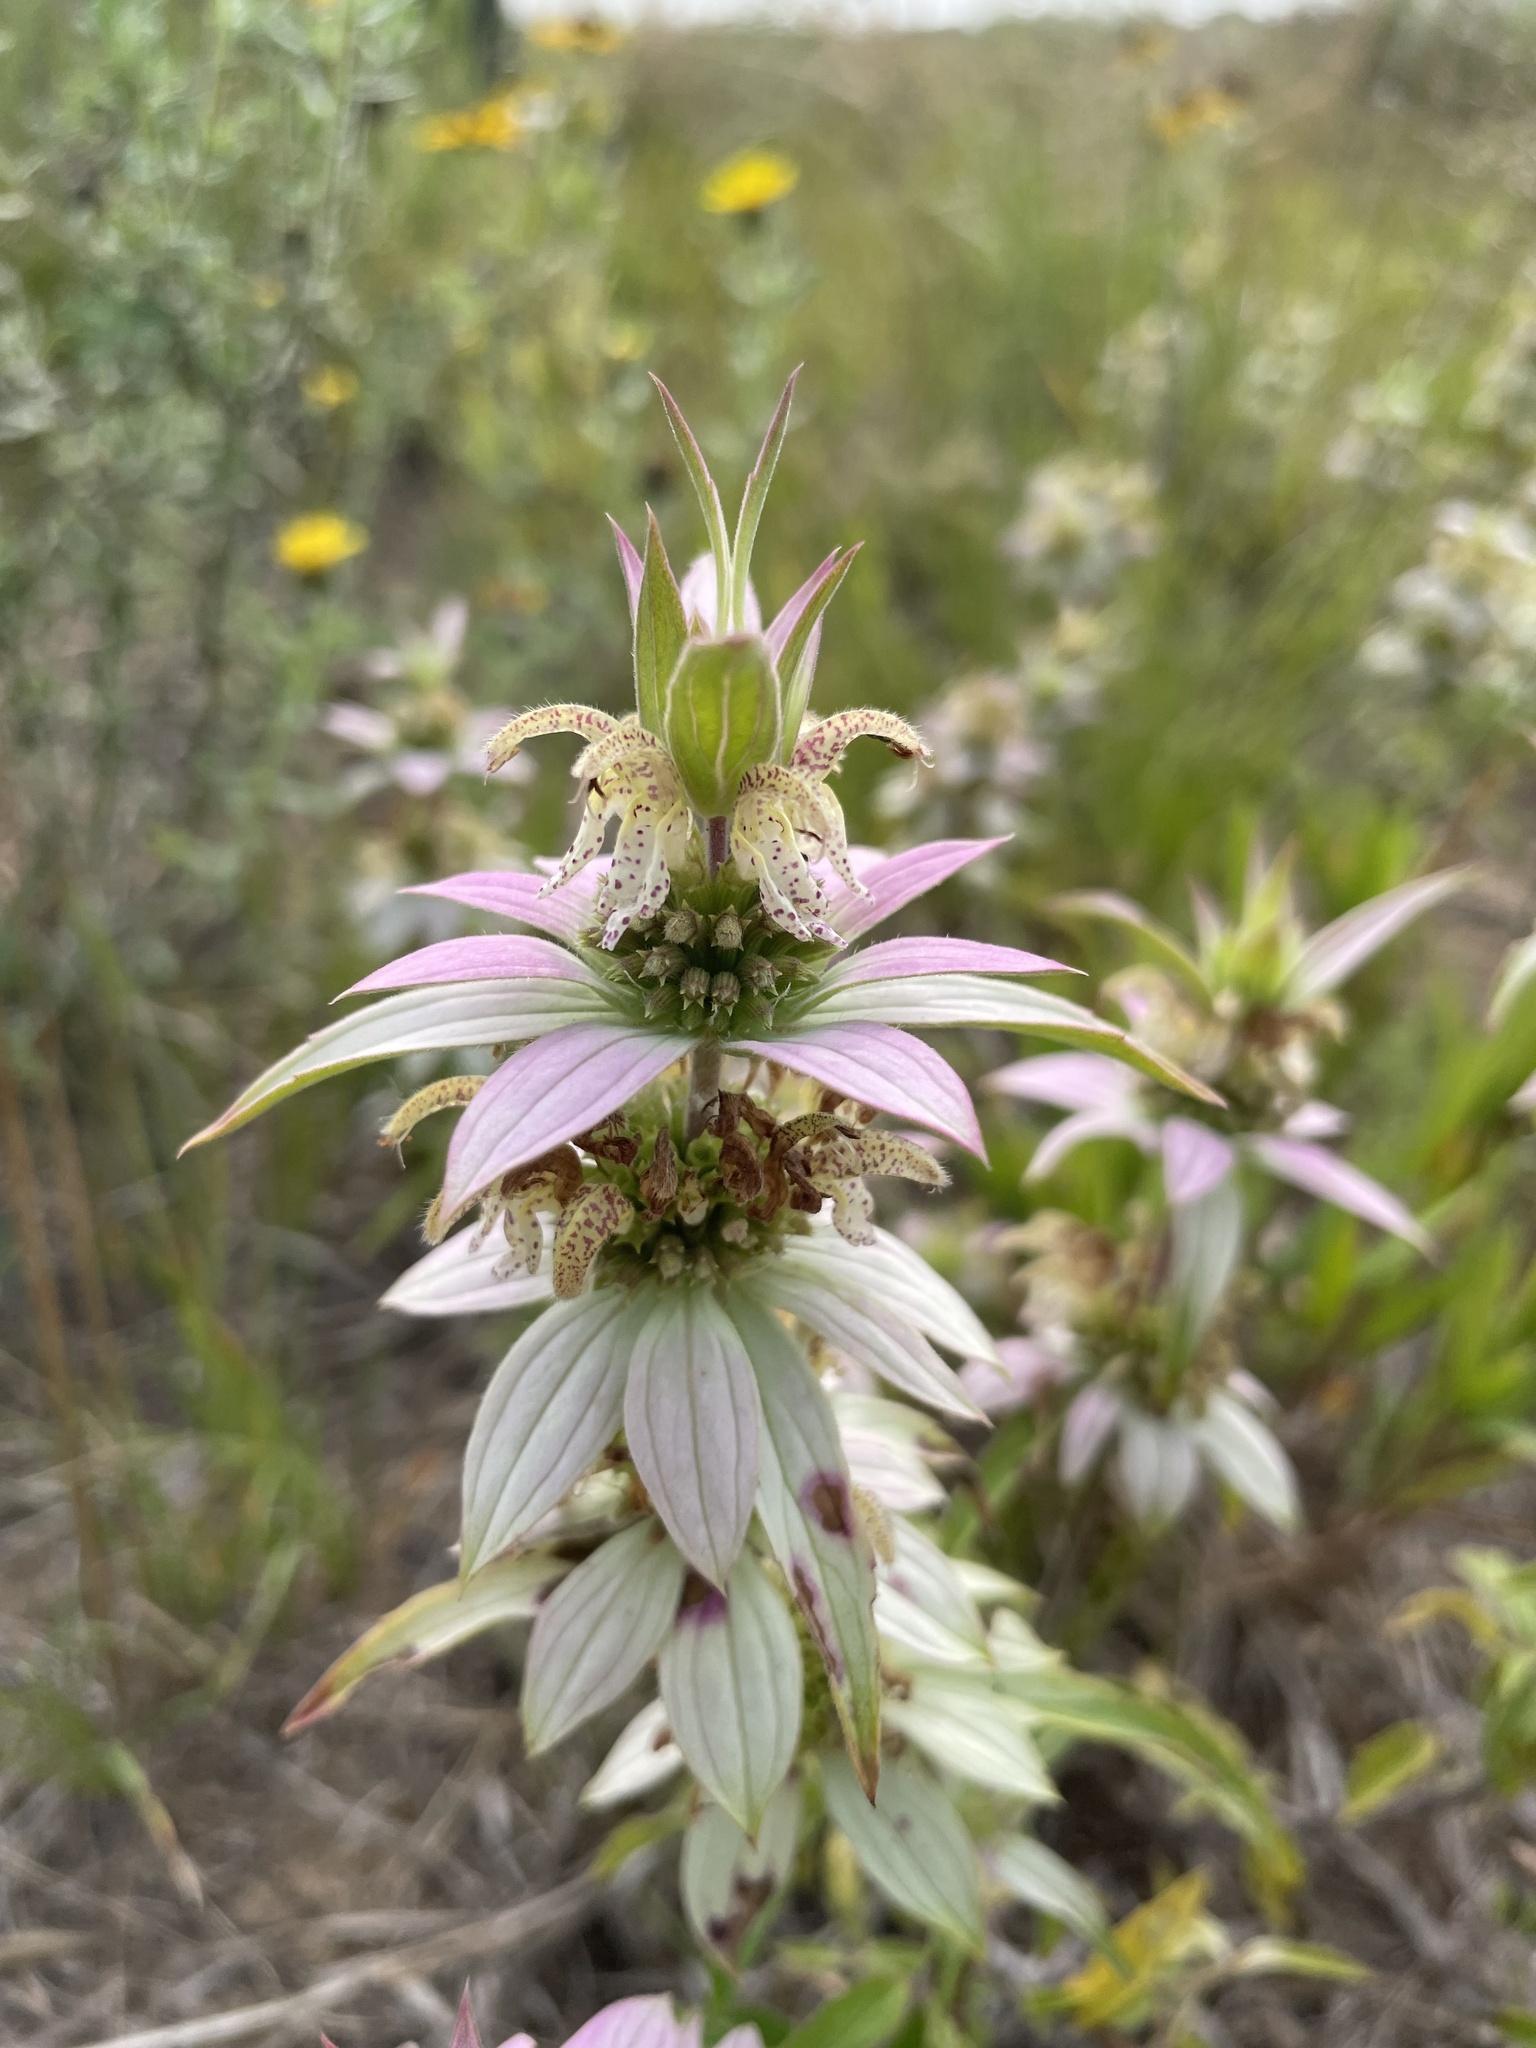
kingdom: Plantae
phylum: Tracheophyta
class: Magnoliopsida
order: Lamiales
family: Lamiaceae
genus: Monarda
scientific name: Monarda punctata
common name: Dotted monarda
